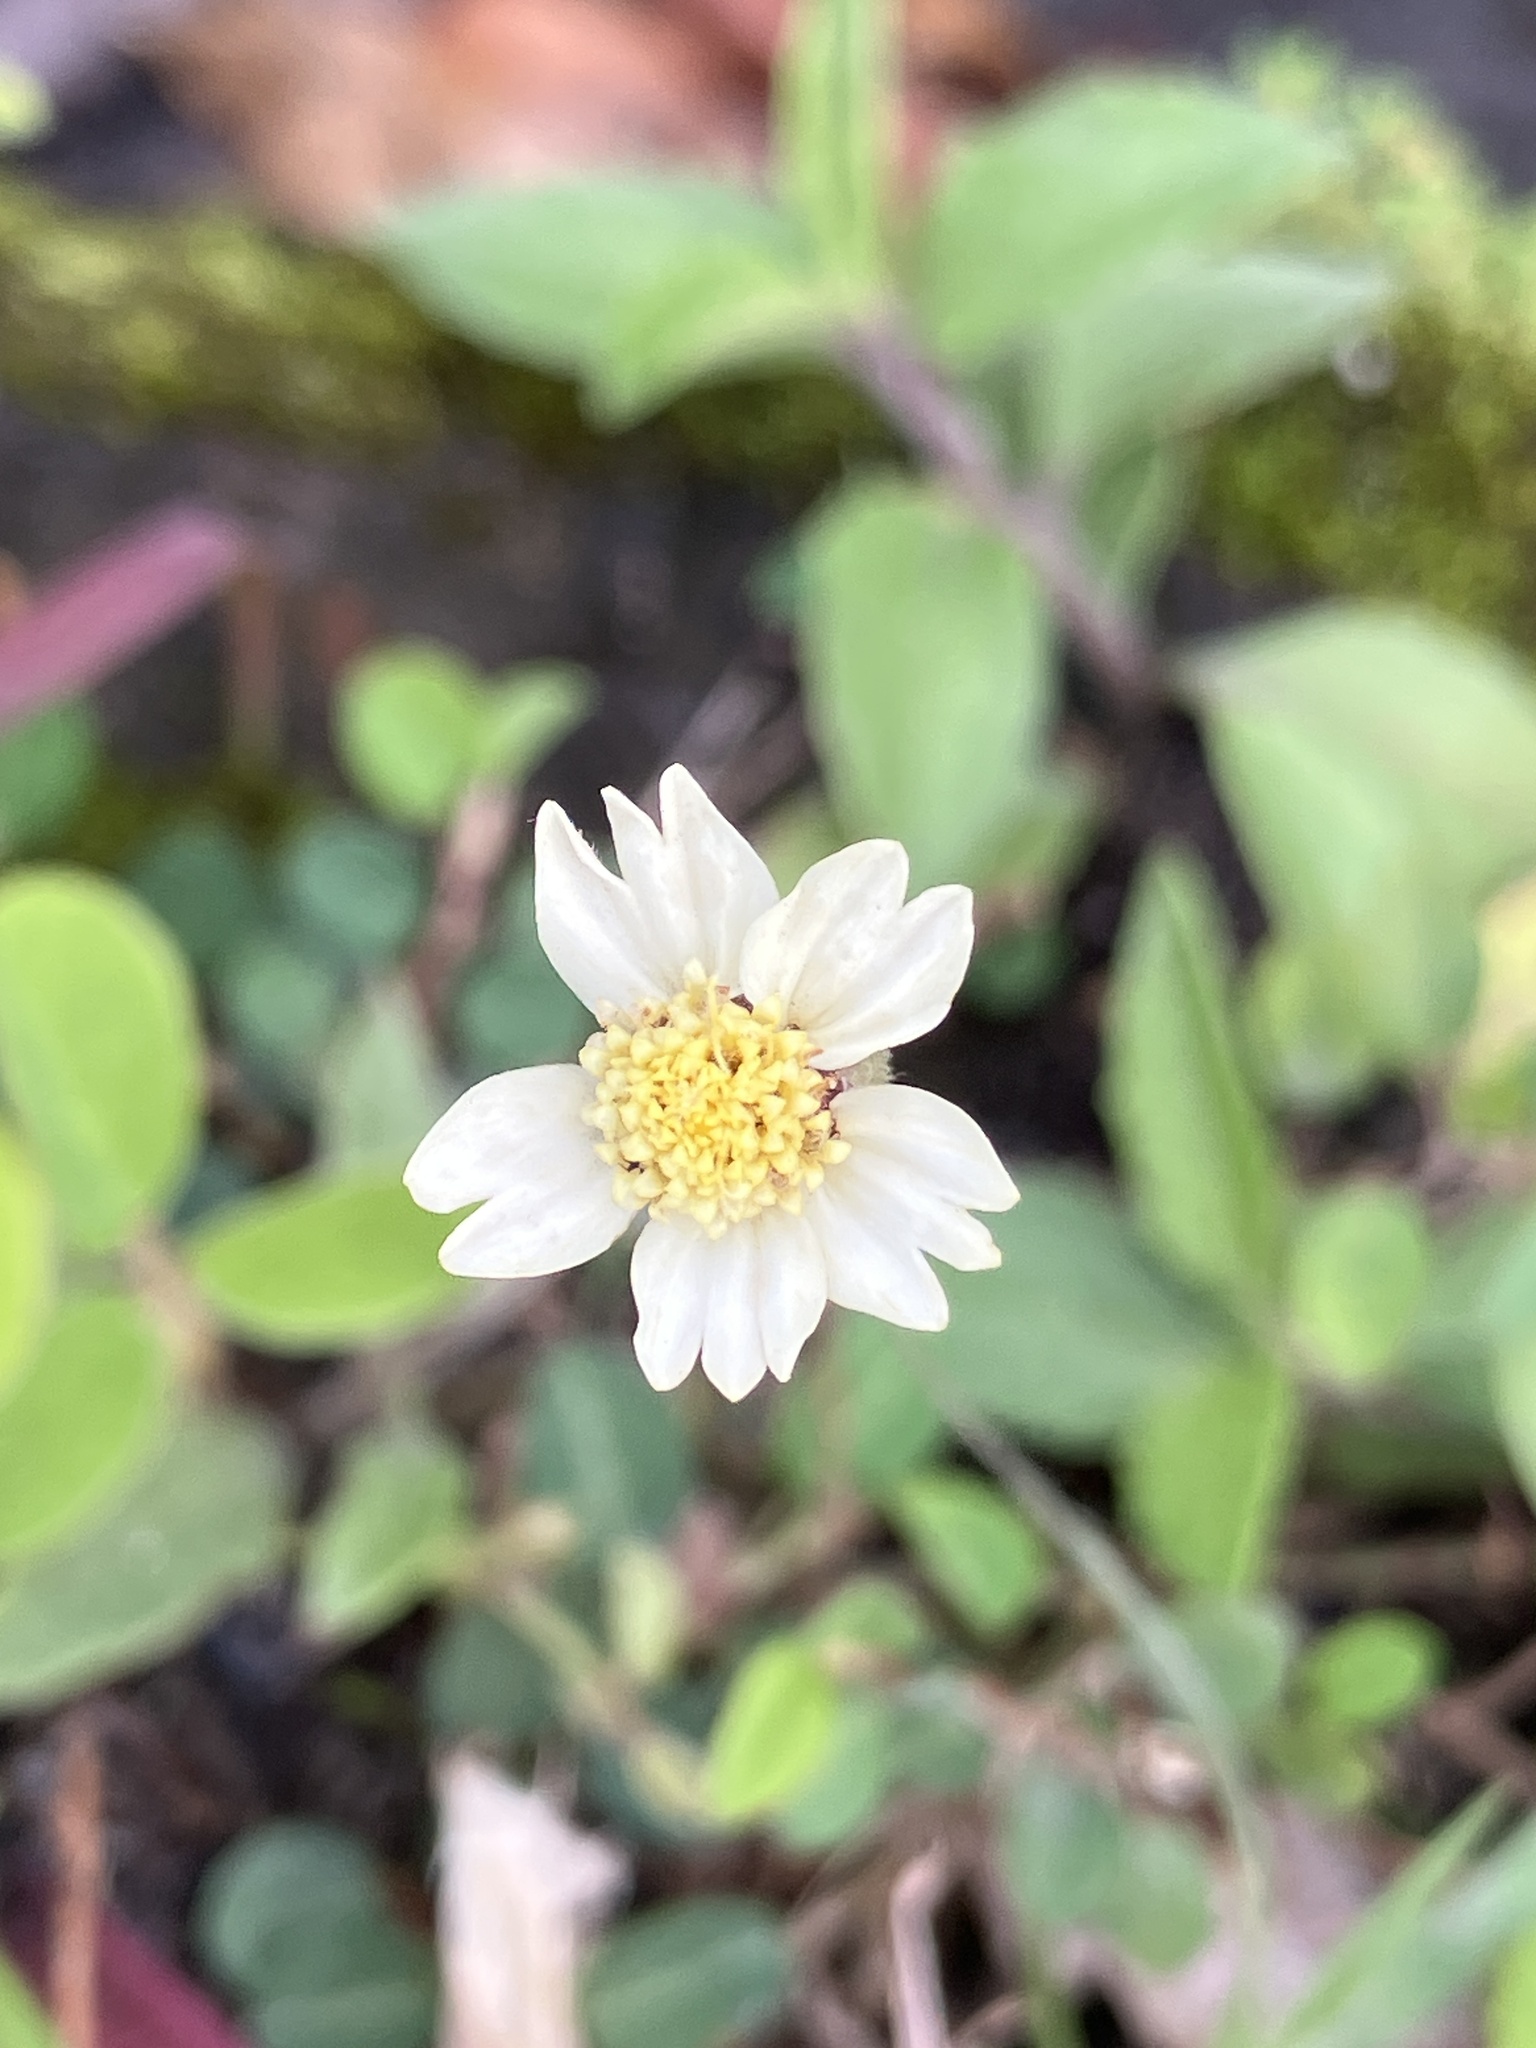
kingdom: Plantae
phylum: Tracheophyta
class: Magnoliopsida
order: Asterales
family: Asteraceae
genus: Tridax
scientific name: Tridax procumbens
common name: Coatbuttons
